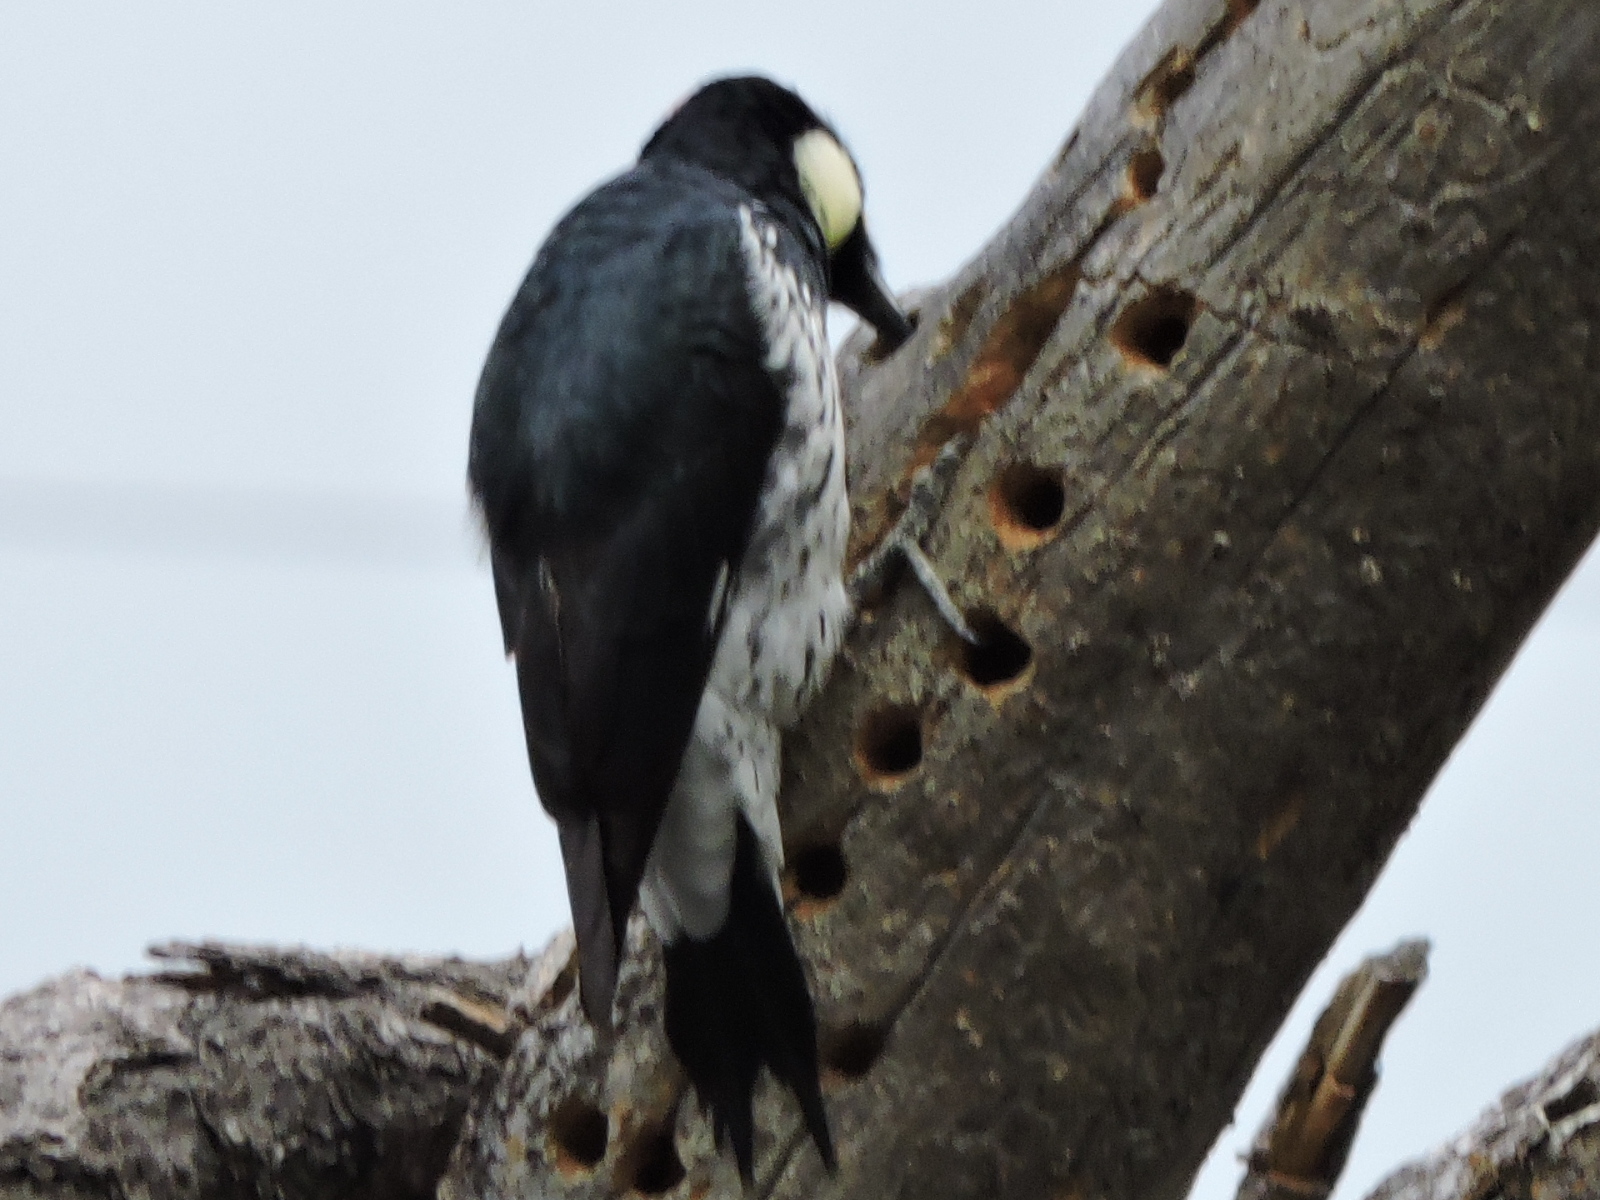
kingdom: Animalia
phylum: Chordata
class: Aves
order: Piciformes
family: Picidae
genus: Melanerpes
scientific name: Melanerpes formicivorus
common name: Acorn woodpecker
